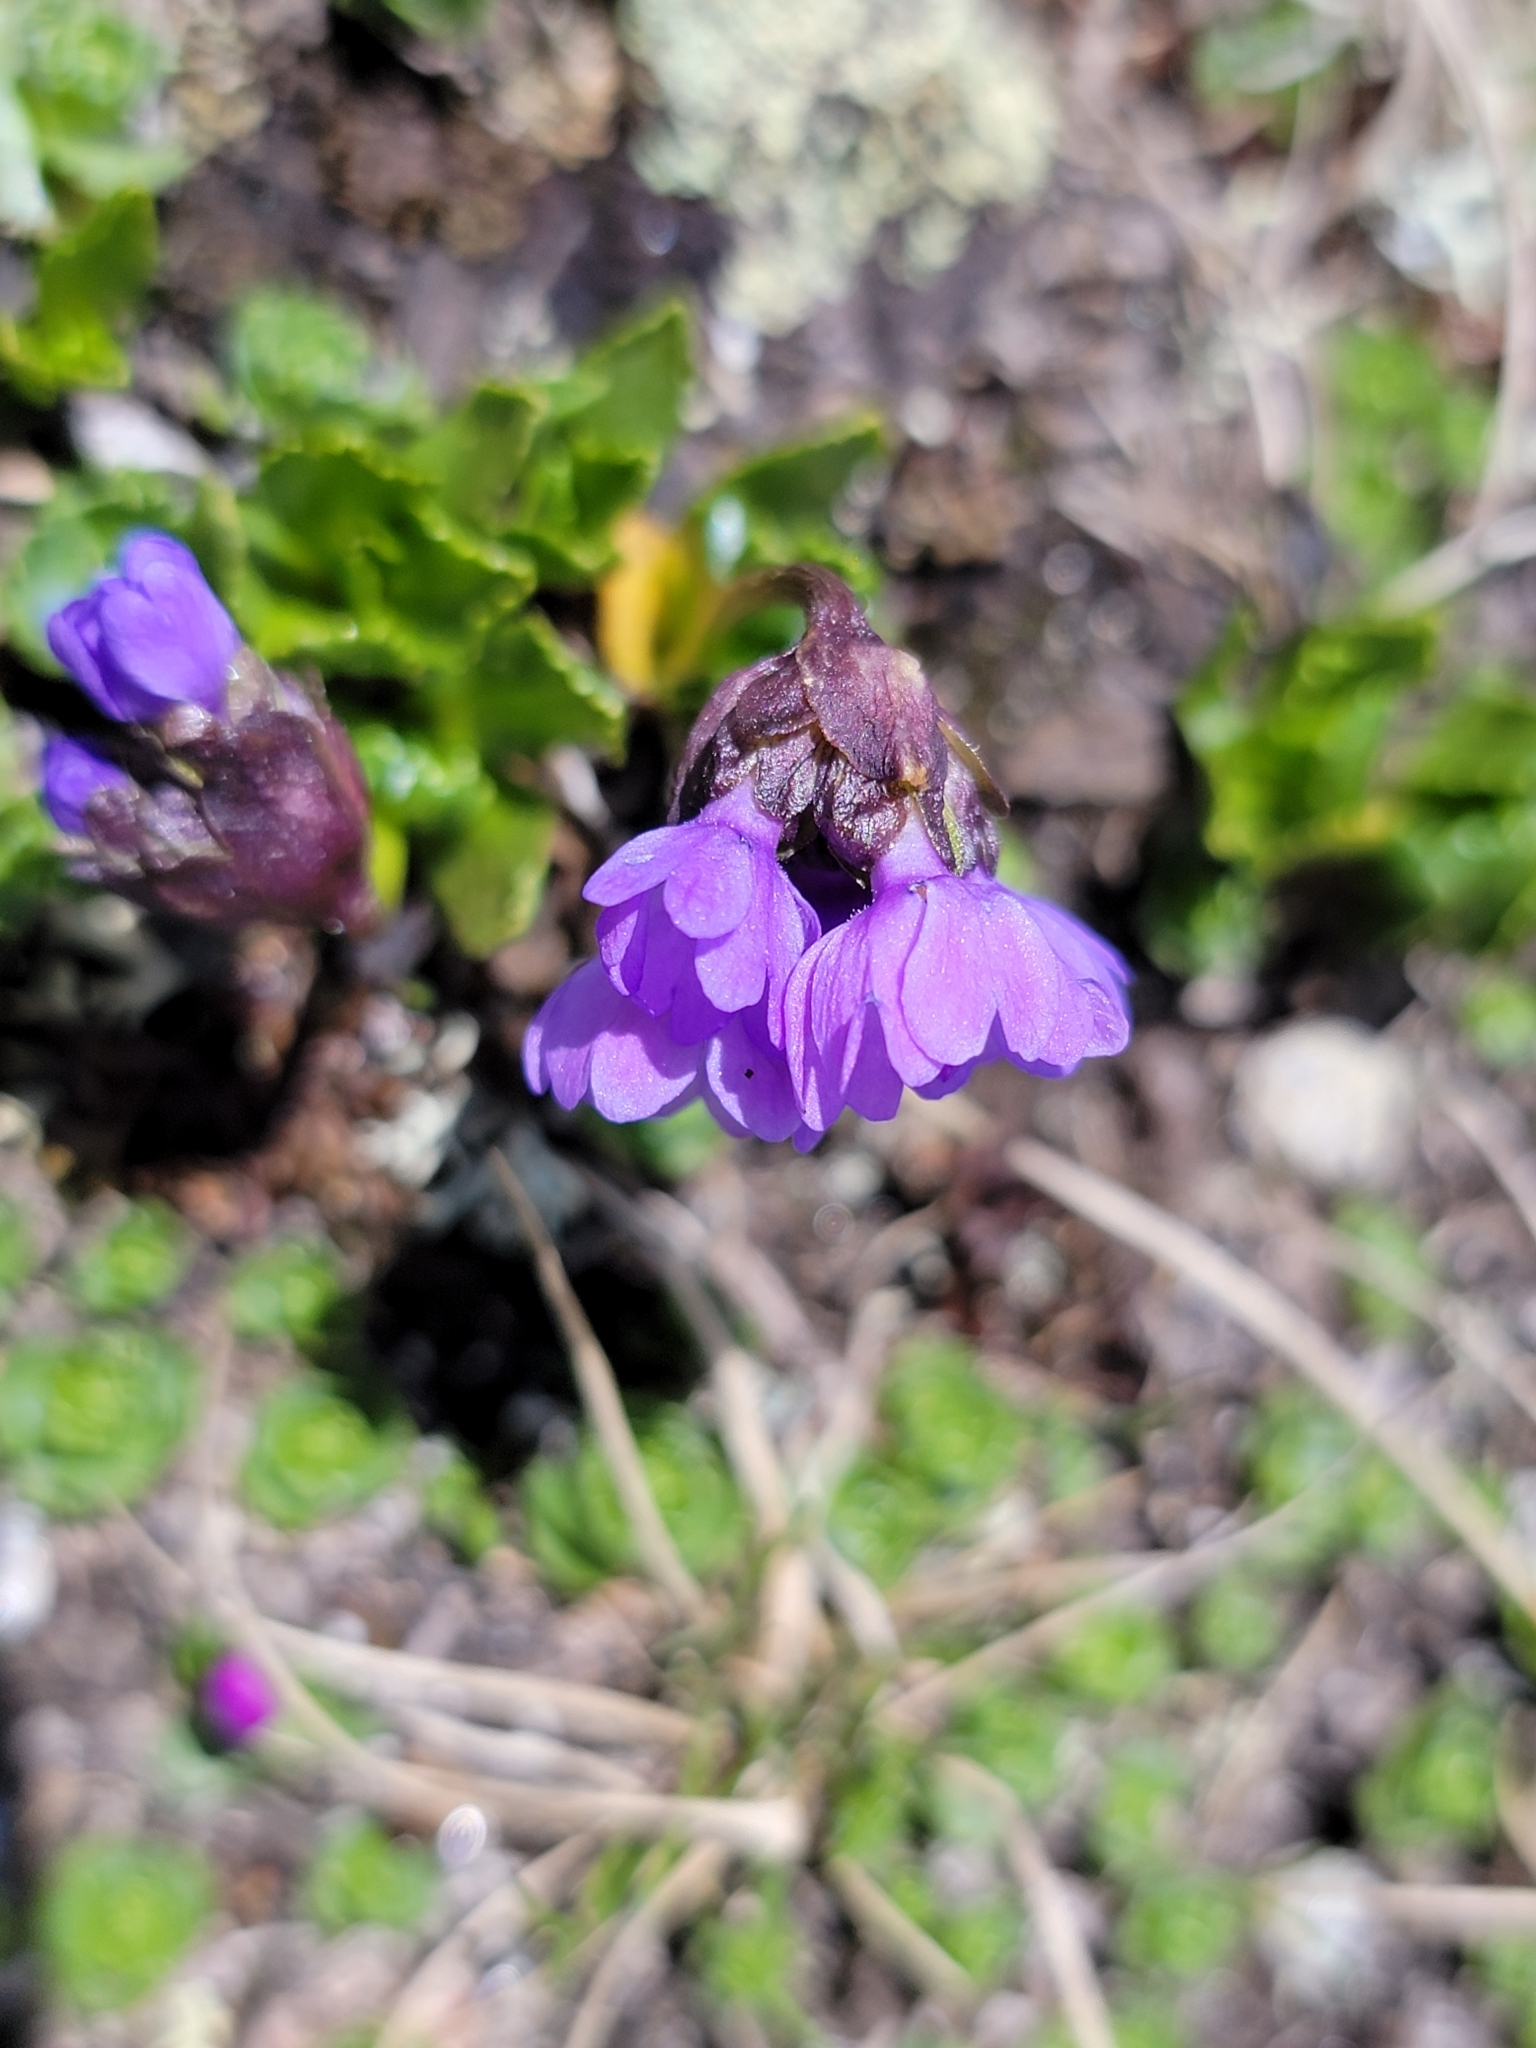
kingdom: Plantae
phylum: Tracheophyta
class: Magnoliopsida
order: Ericales
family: Primulaceae
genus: Primula
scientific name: Primula glutinosa
